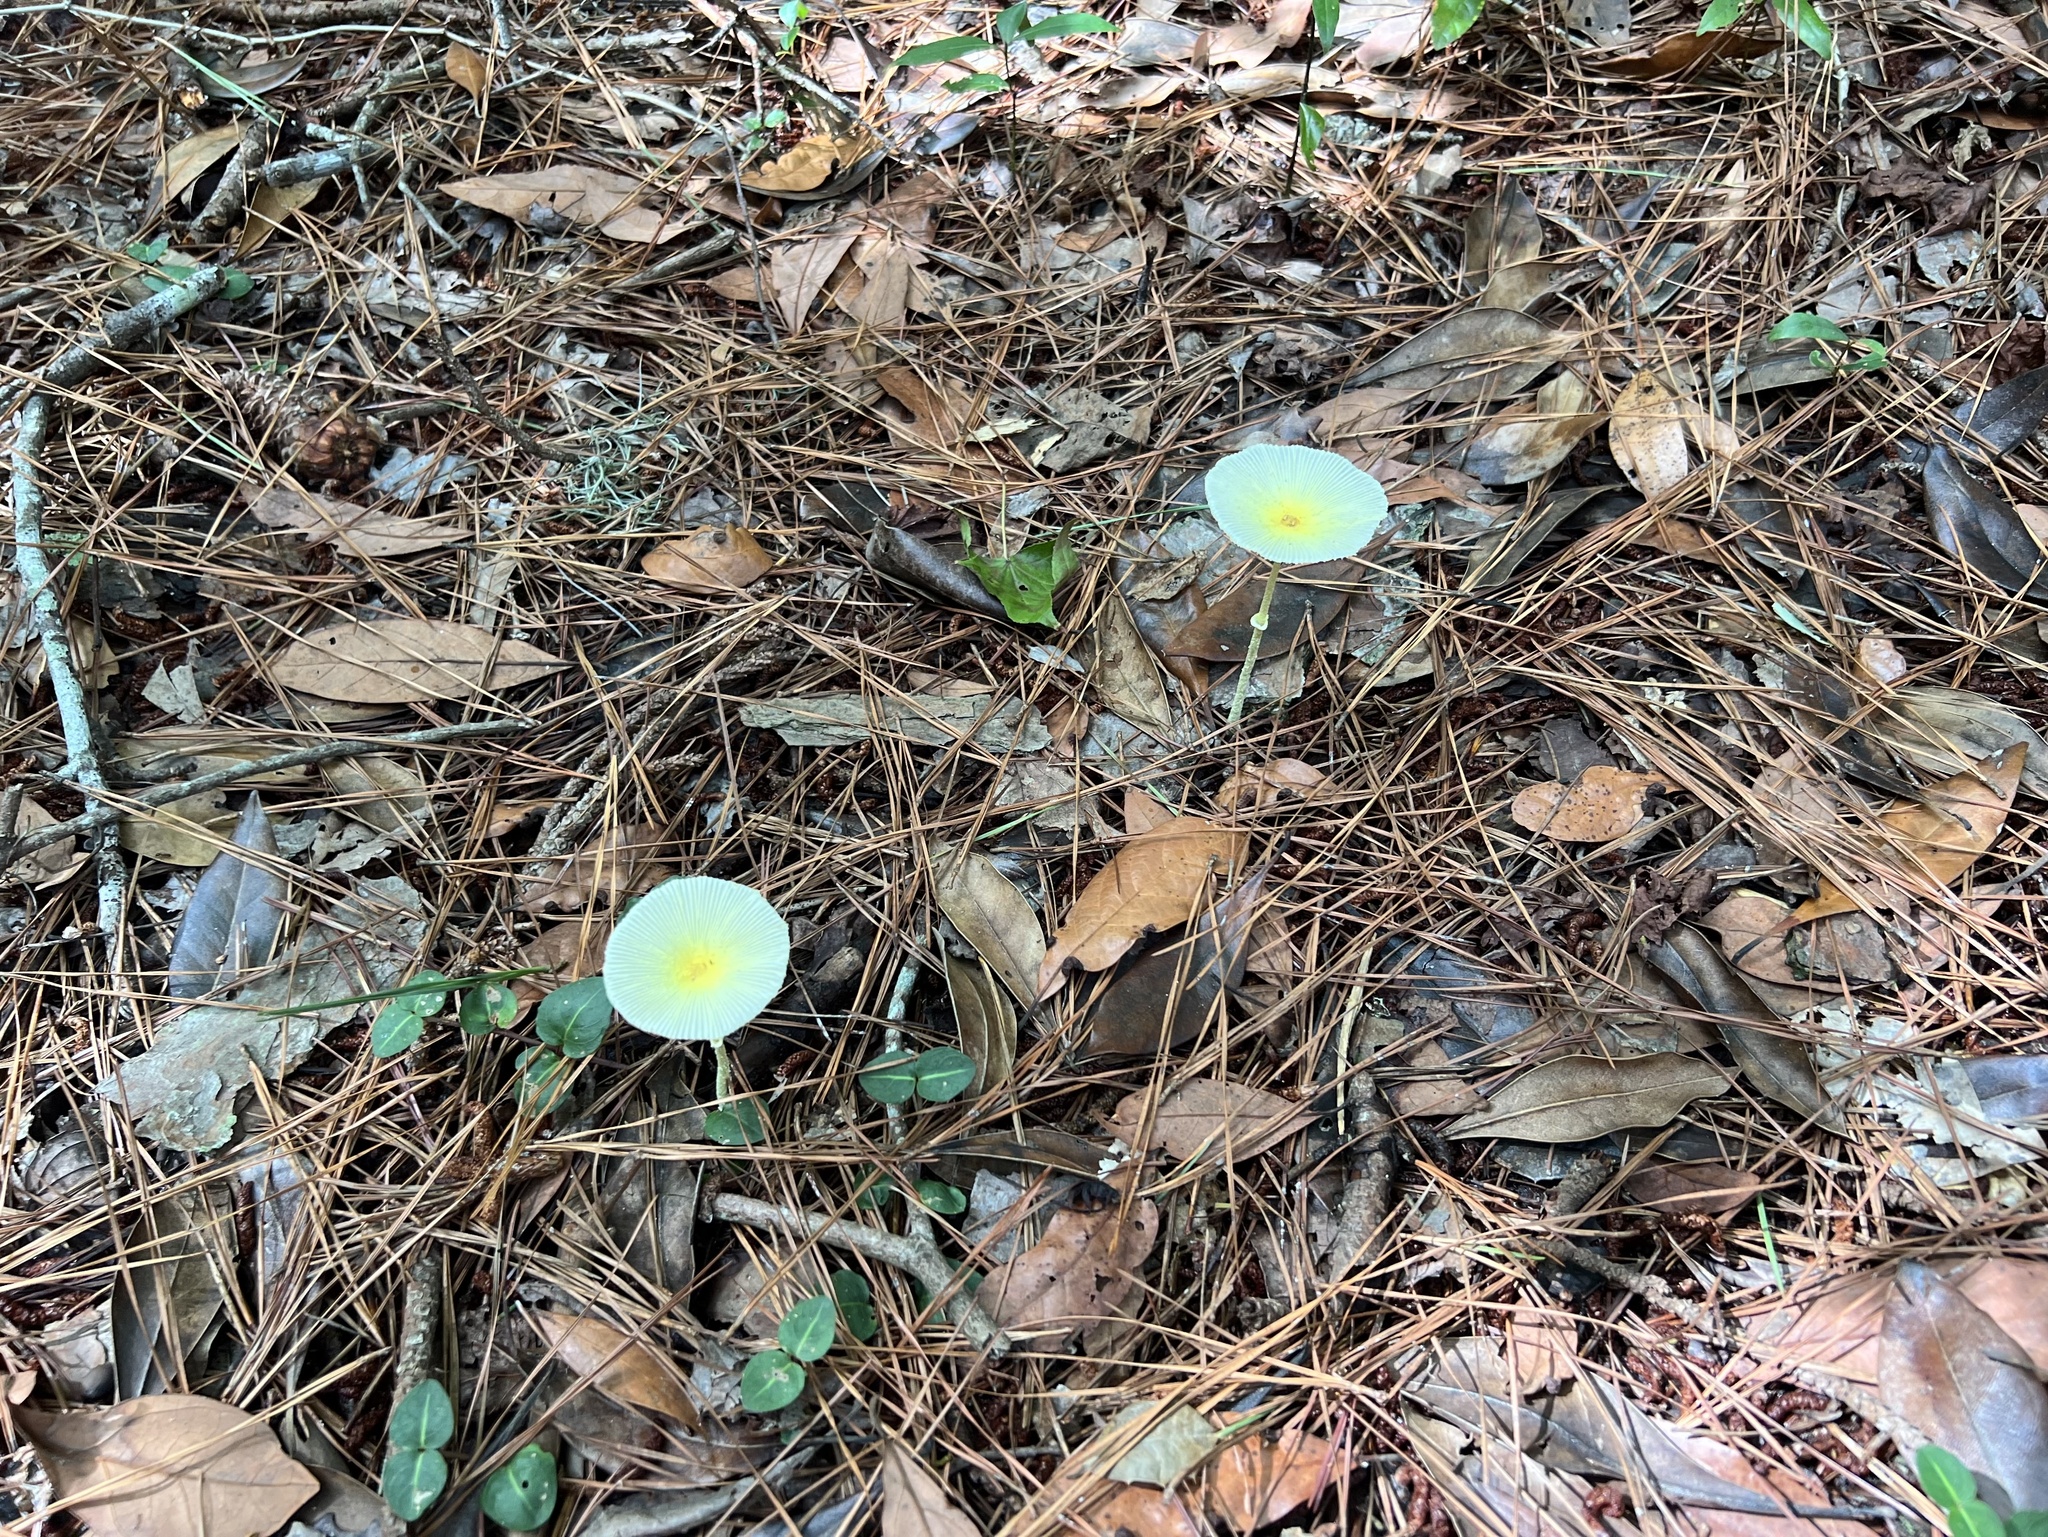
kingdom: Fungi
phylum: Basidiomycota
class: Agaricomycetes
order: Agaricales
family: Agaricaceae
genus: Leucocoprinus
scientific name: Leucocoprinus fragilissimus
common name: Fragile dapperling
